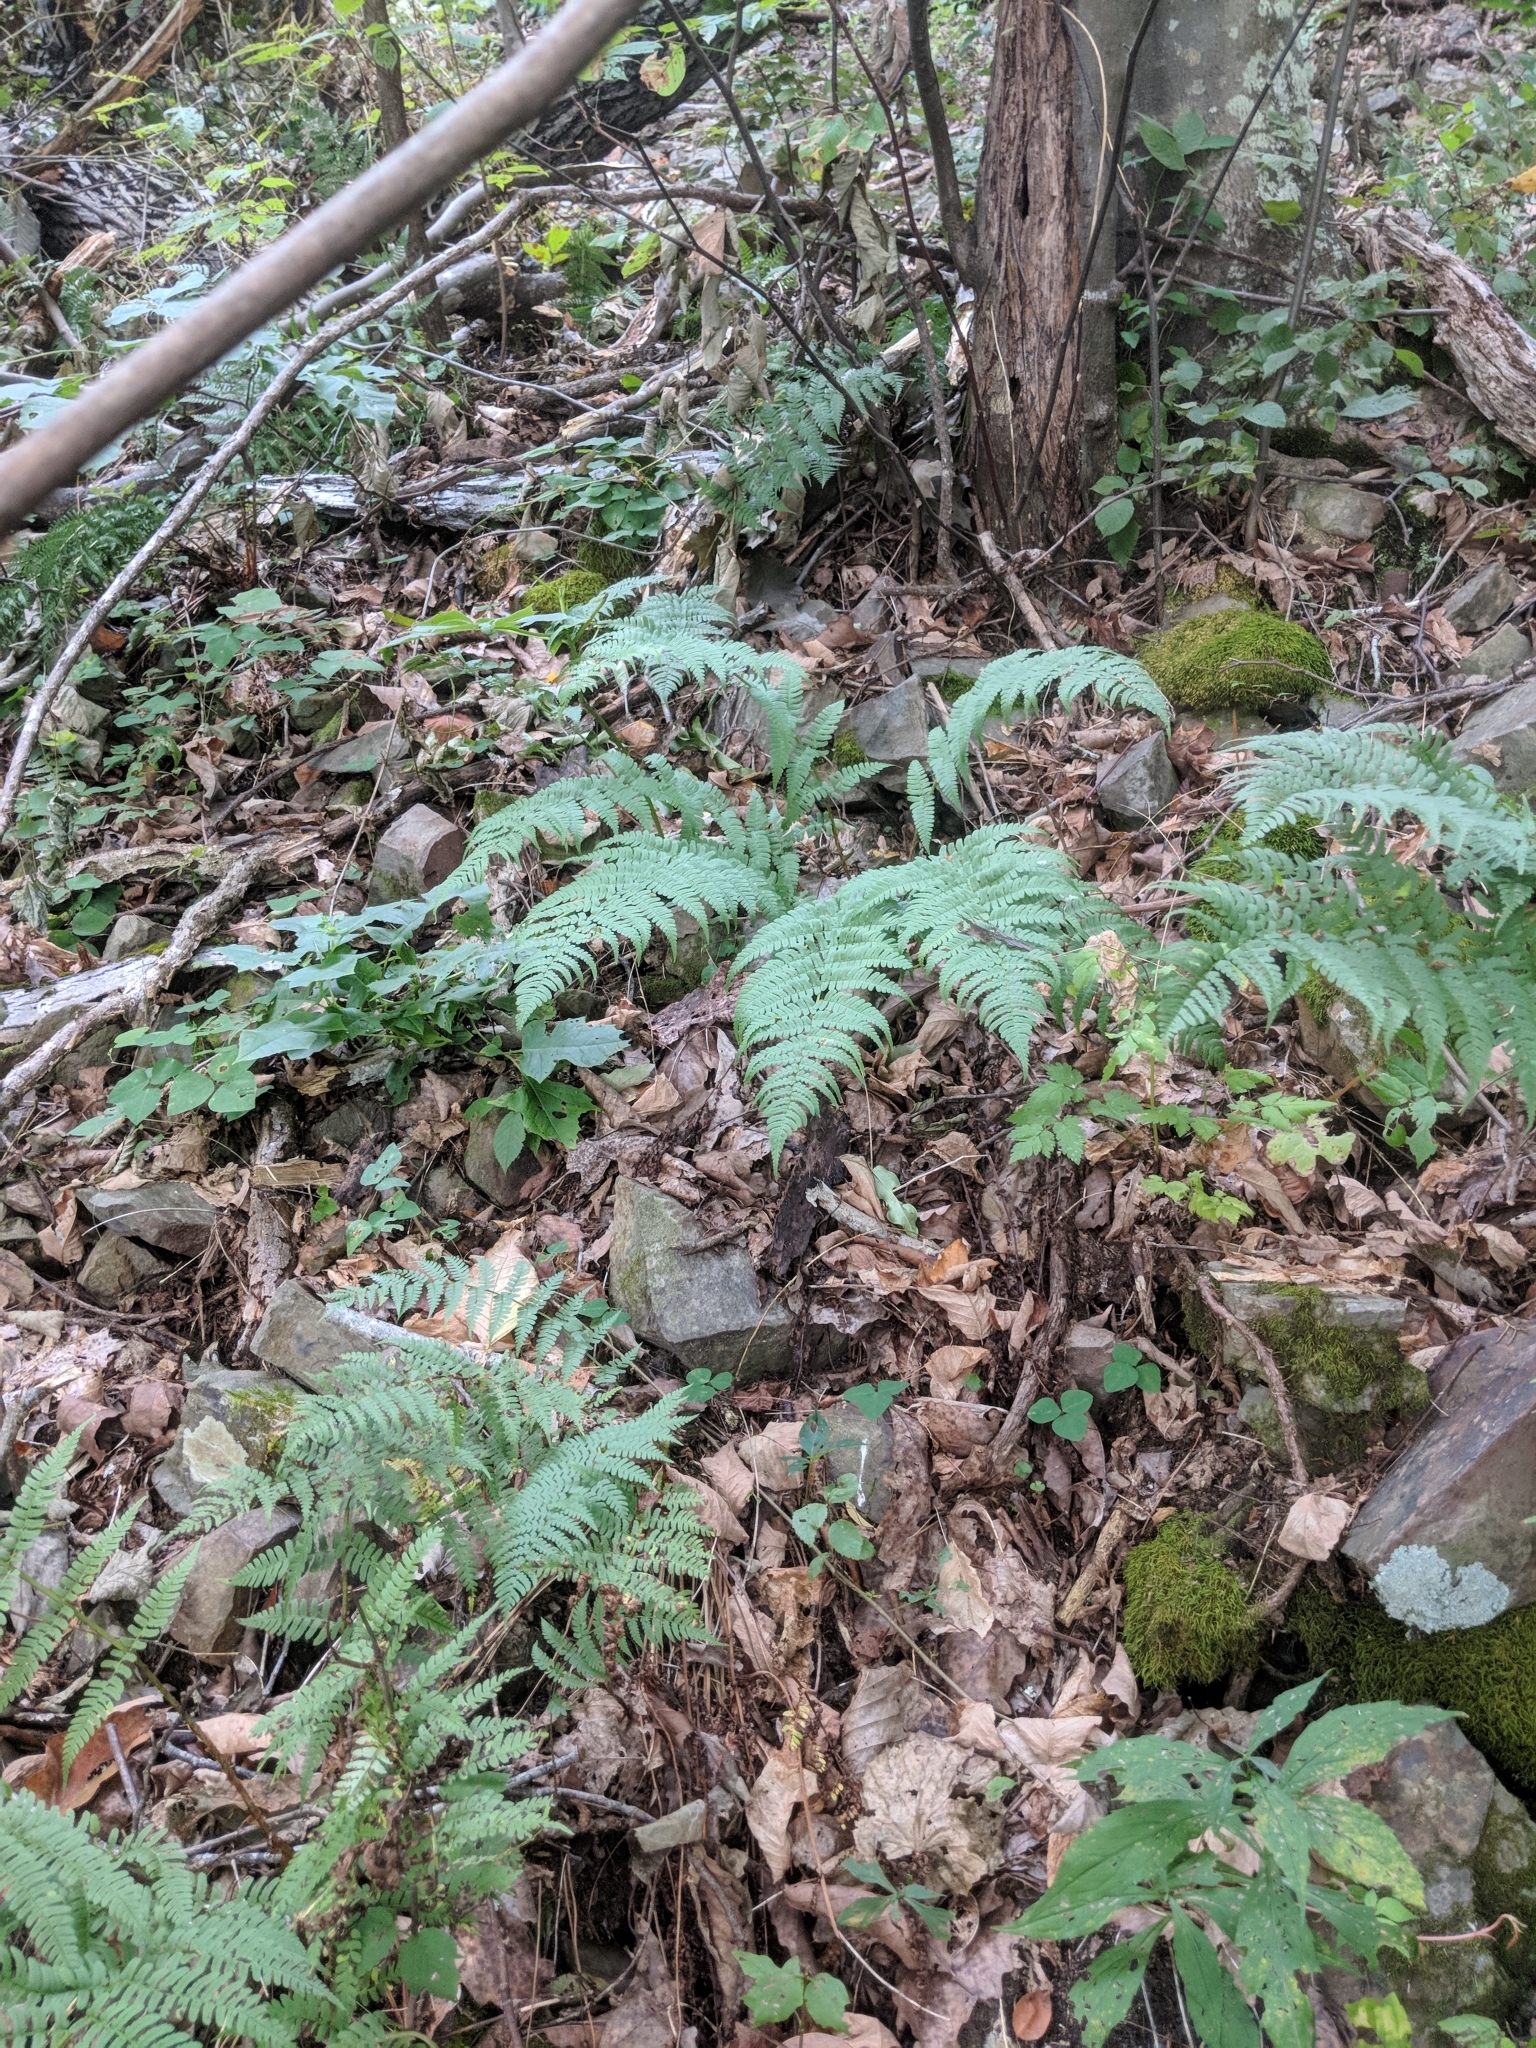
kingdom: Plantae
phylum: Tracheophyta
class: Polypodiopsida
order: Polypodiales
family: Dryopteridaceae
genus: Dryopteris
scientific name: Dryopteris marginalis
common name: Marginal wood fern
